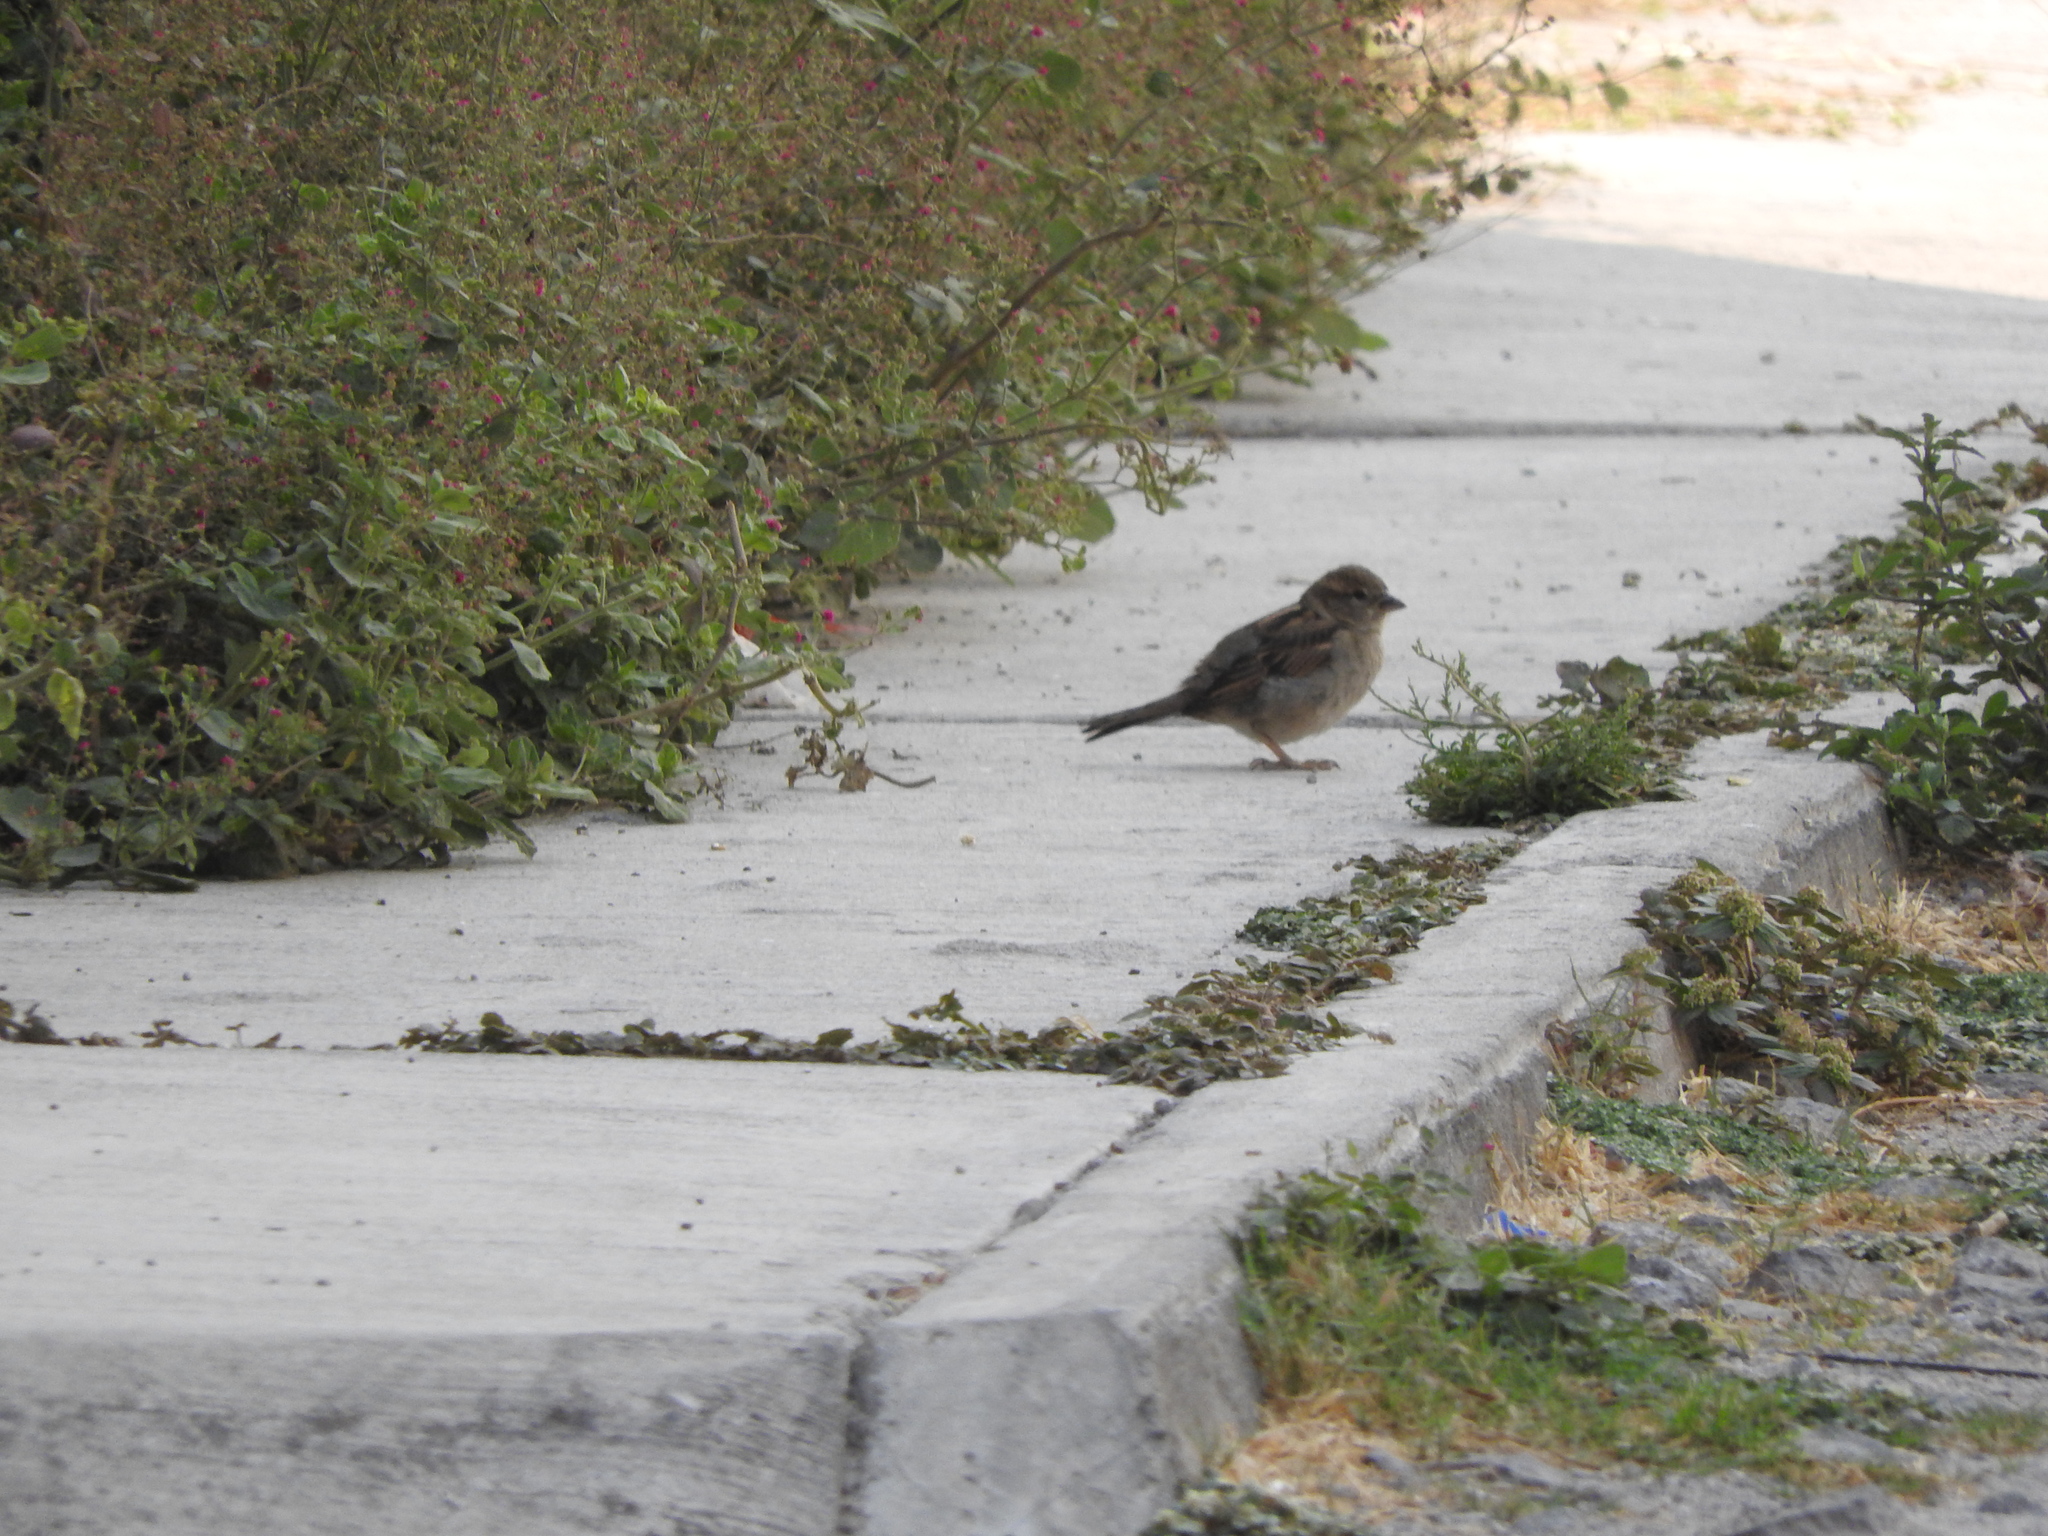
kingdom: Animalia
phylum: Chordata
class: Aves
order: Passeriformes
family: Passeridae
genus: Passer
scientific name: Passer domesticus
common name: House sparrow
